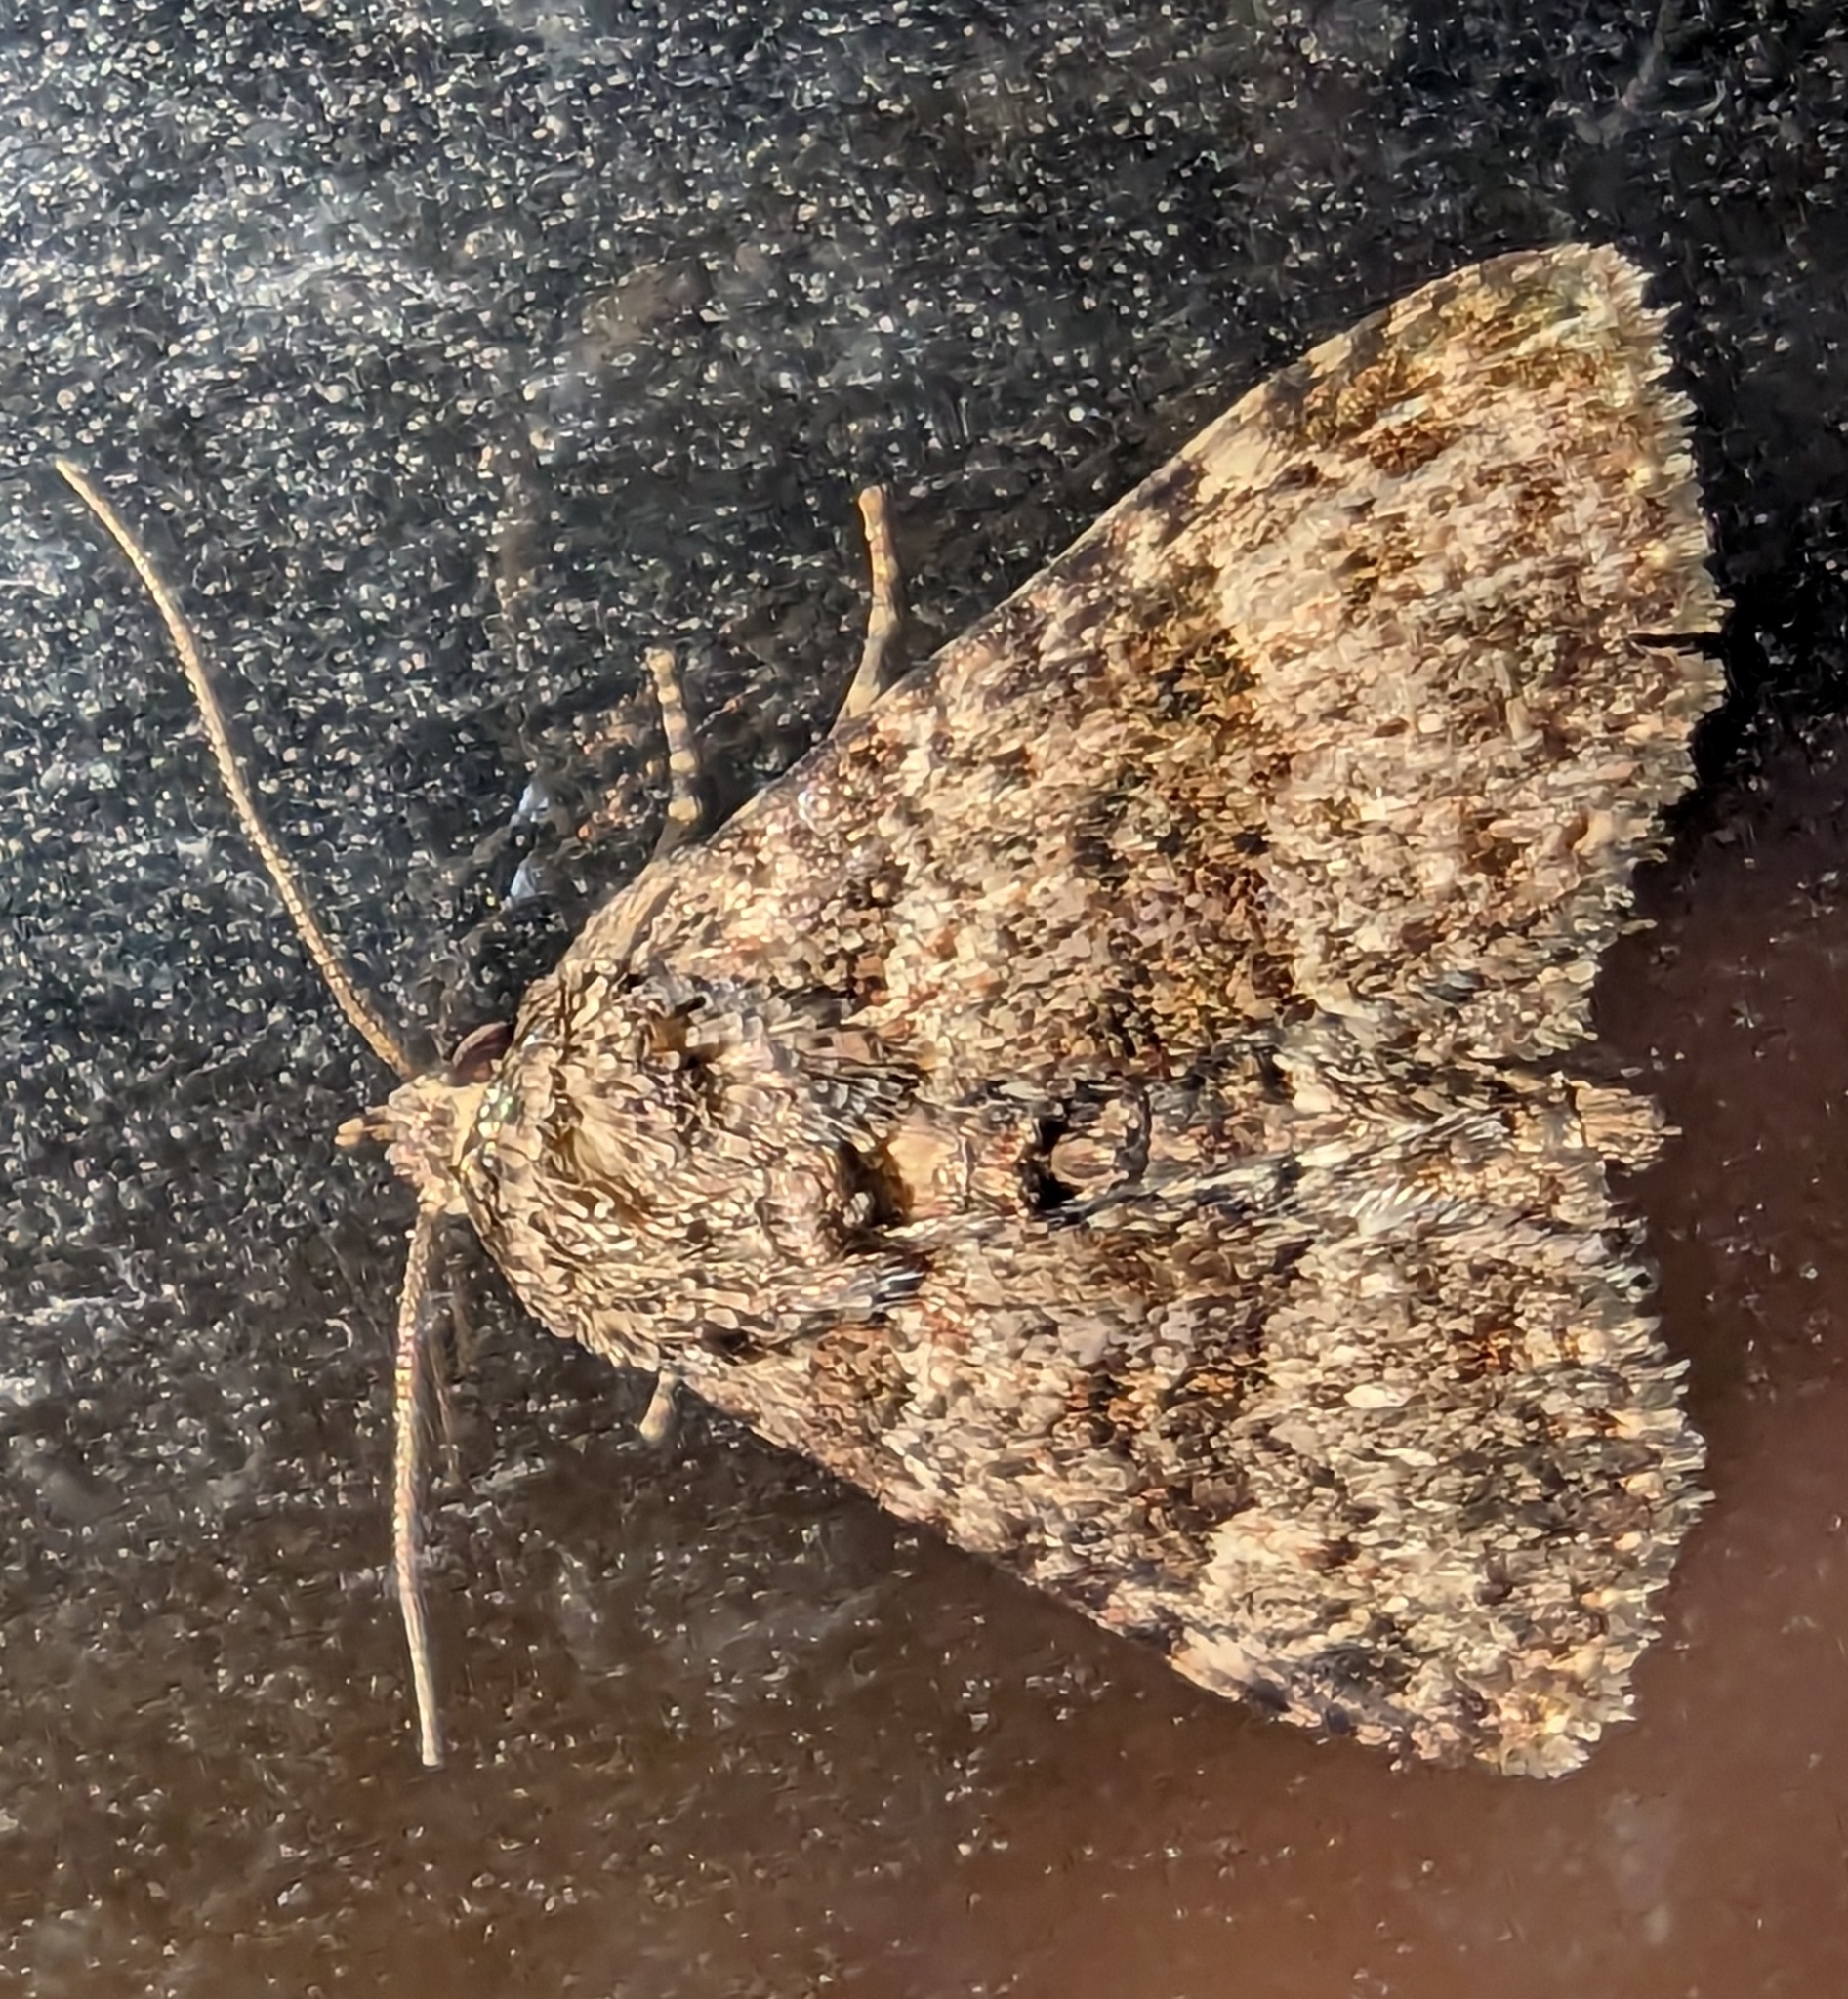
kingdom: Animalia
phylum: Arthropoda
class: Insecta
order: Lepidoptera
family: Erebidae
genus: Metalectra
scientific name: Metalectra discalis
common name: Common fungus moth
